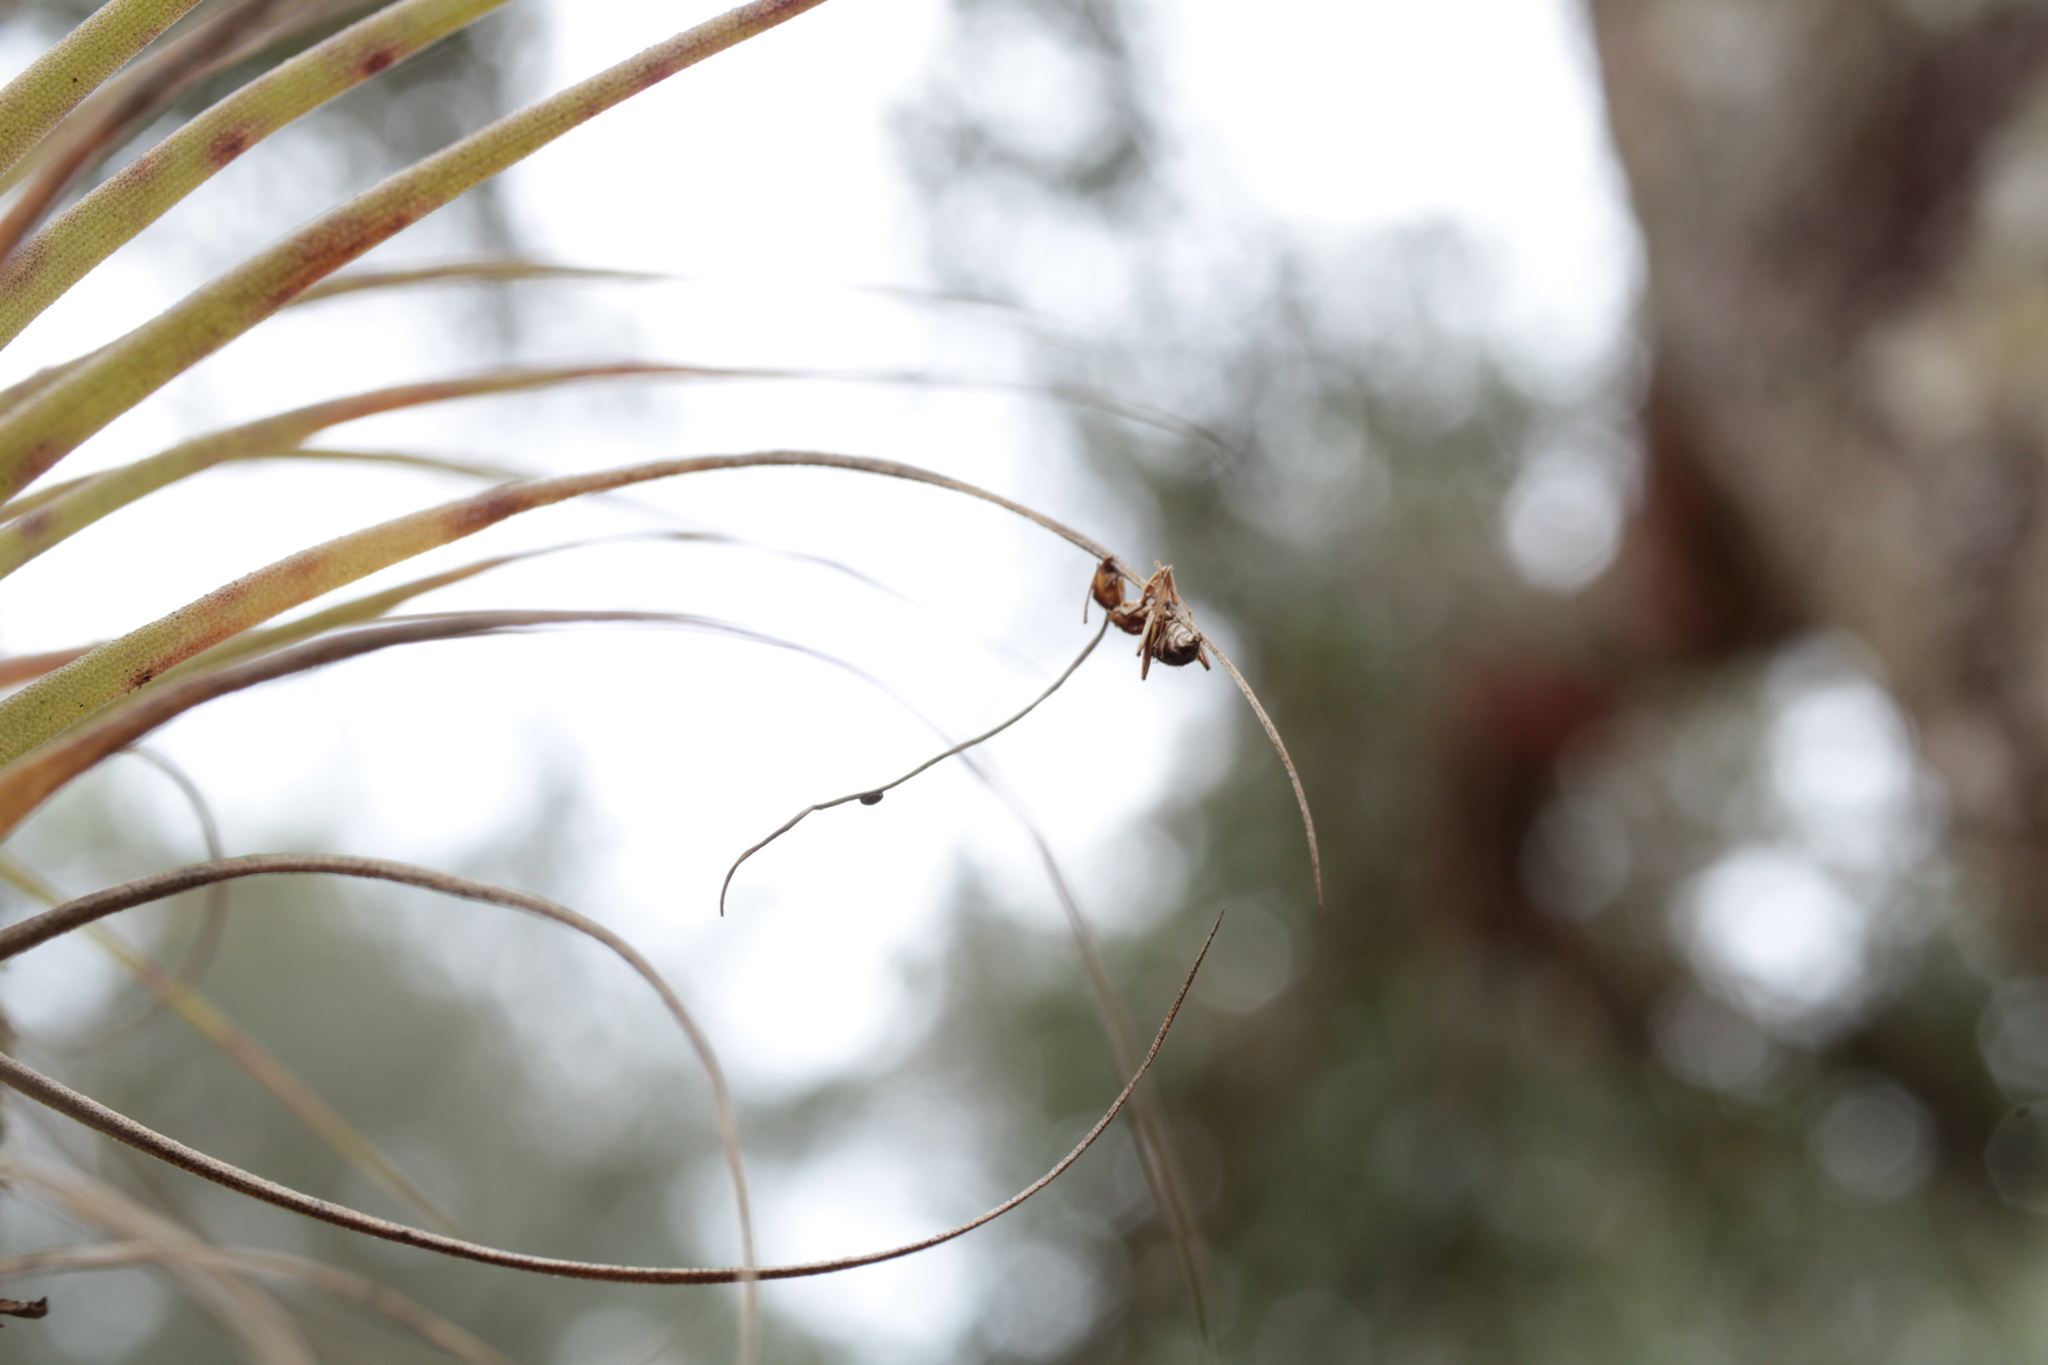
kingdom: Fungi
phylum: Ascomycota
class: Sordariomycetes
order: Hypocreales
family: Ophiocordycipitaceae
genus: Ophiocordyceps
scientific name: Ophiocordyceps camponoti-floridani
